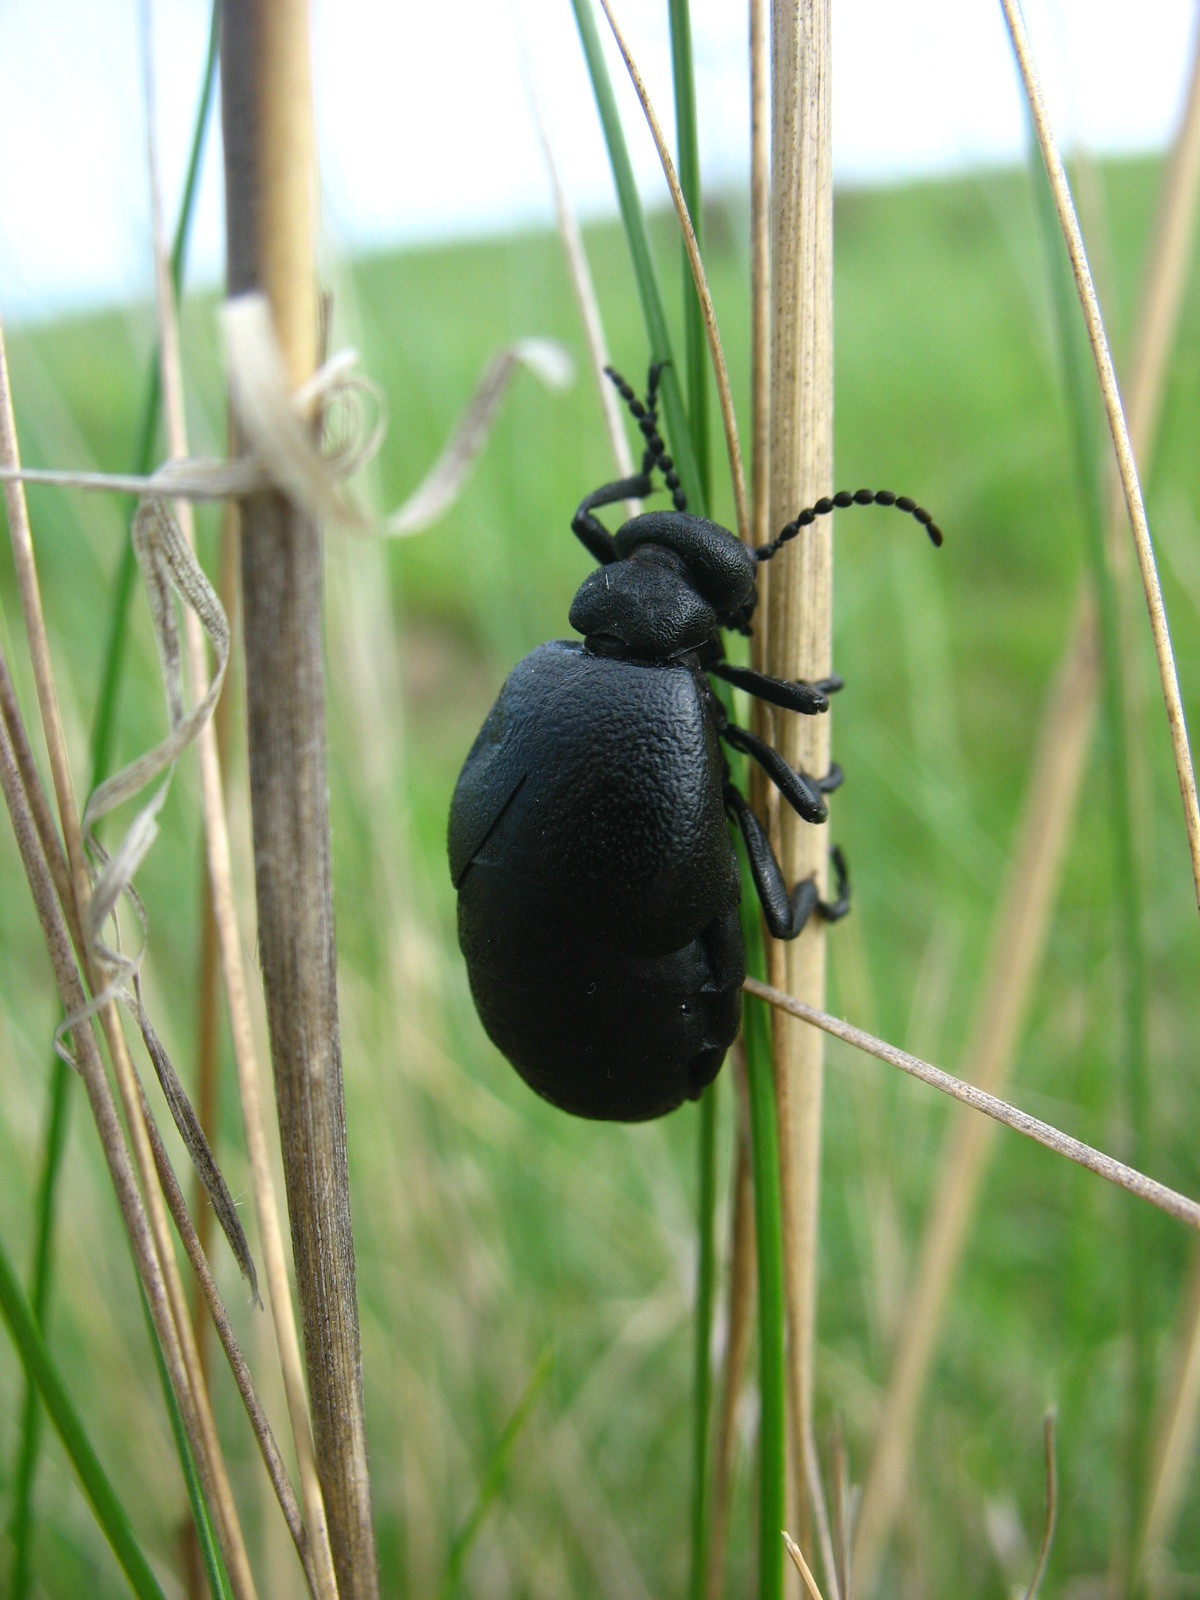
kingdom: Animalia
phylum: Arthropoda
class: Insecta
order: Coleoptera
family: Meloidae
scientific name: Meloidae
